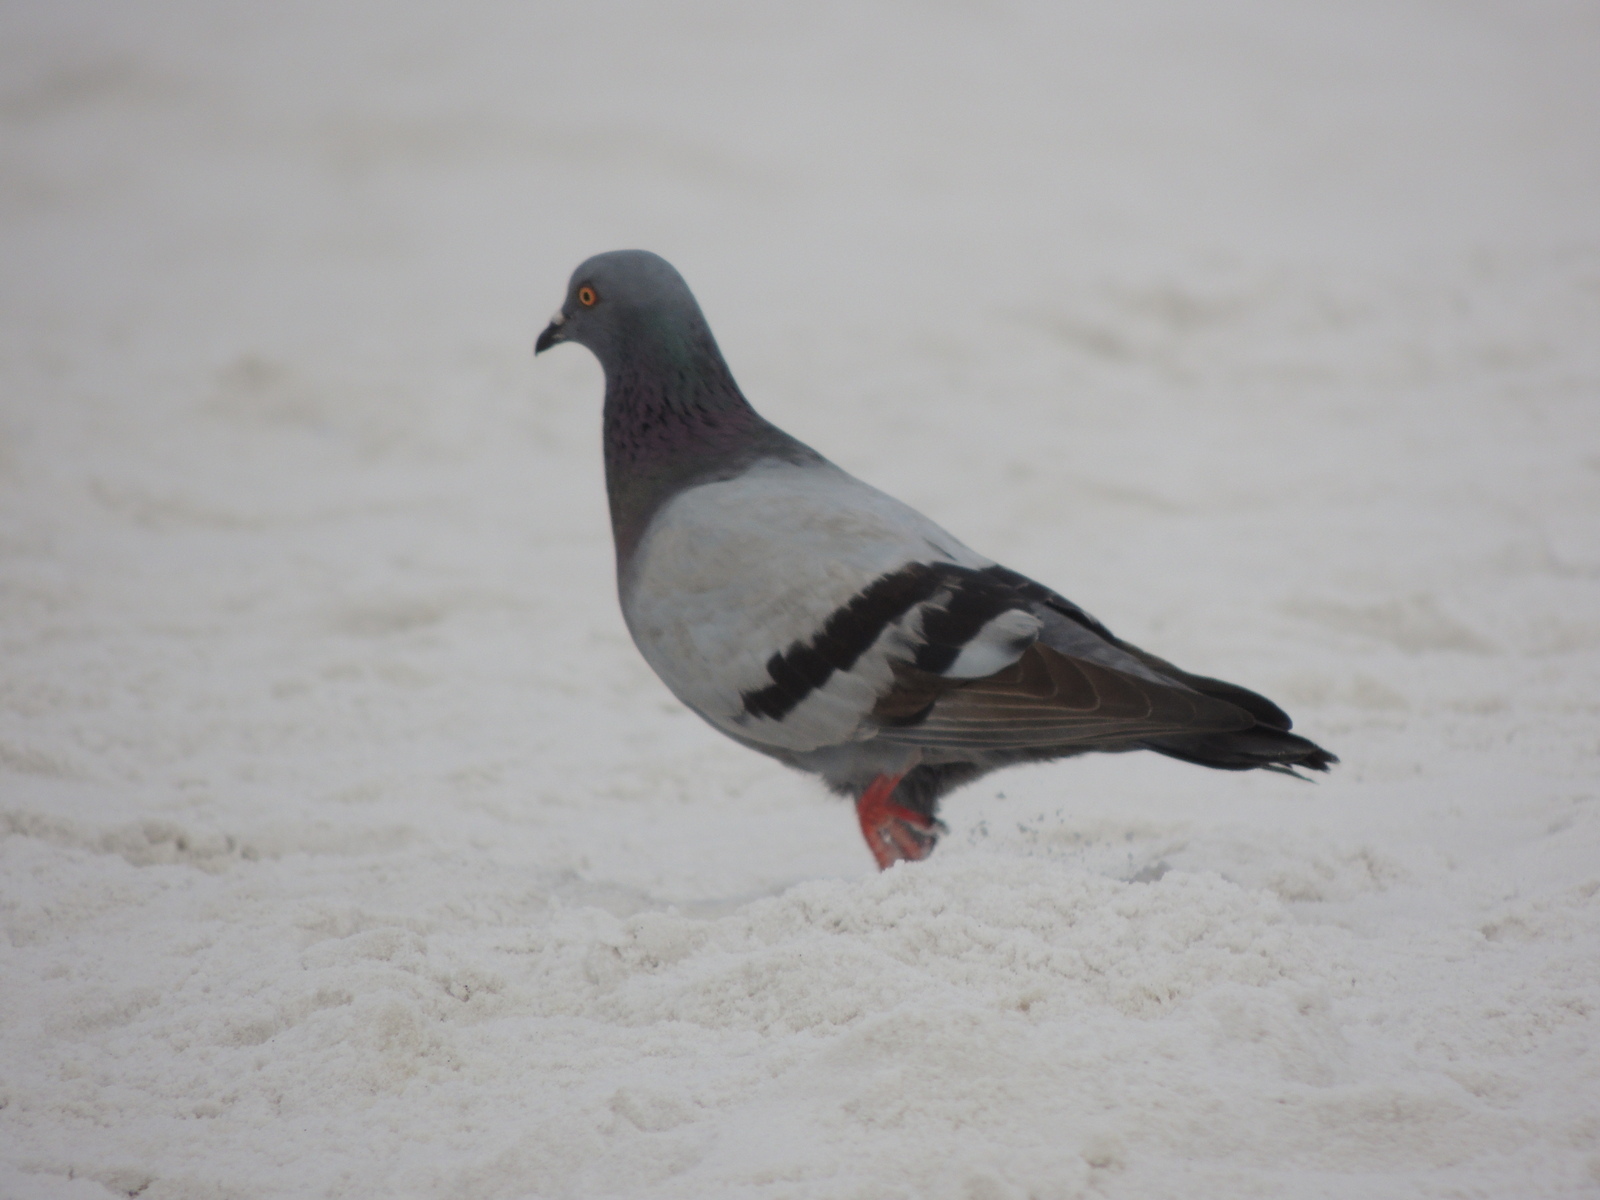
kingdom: Animalia
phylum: Chordata
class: Aves
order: Columbiformes
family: Columbidae
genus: Columba
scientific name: Columba livia
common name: Rock pigeon
